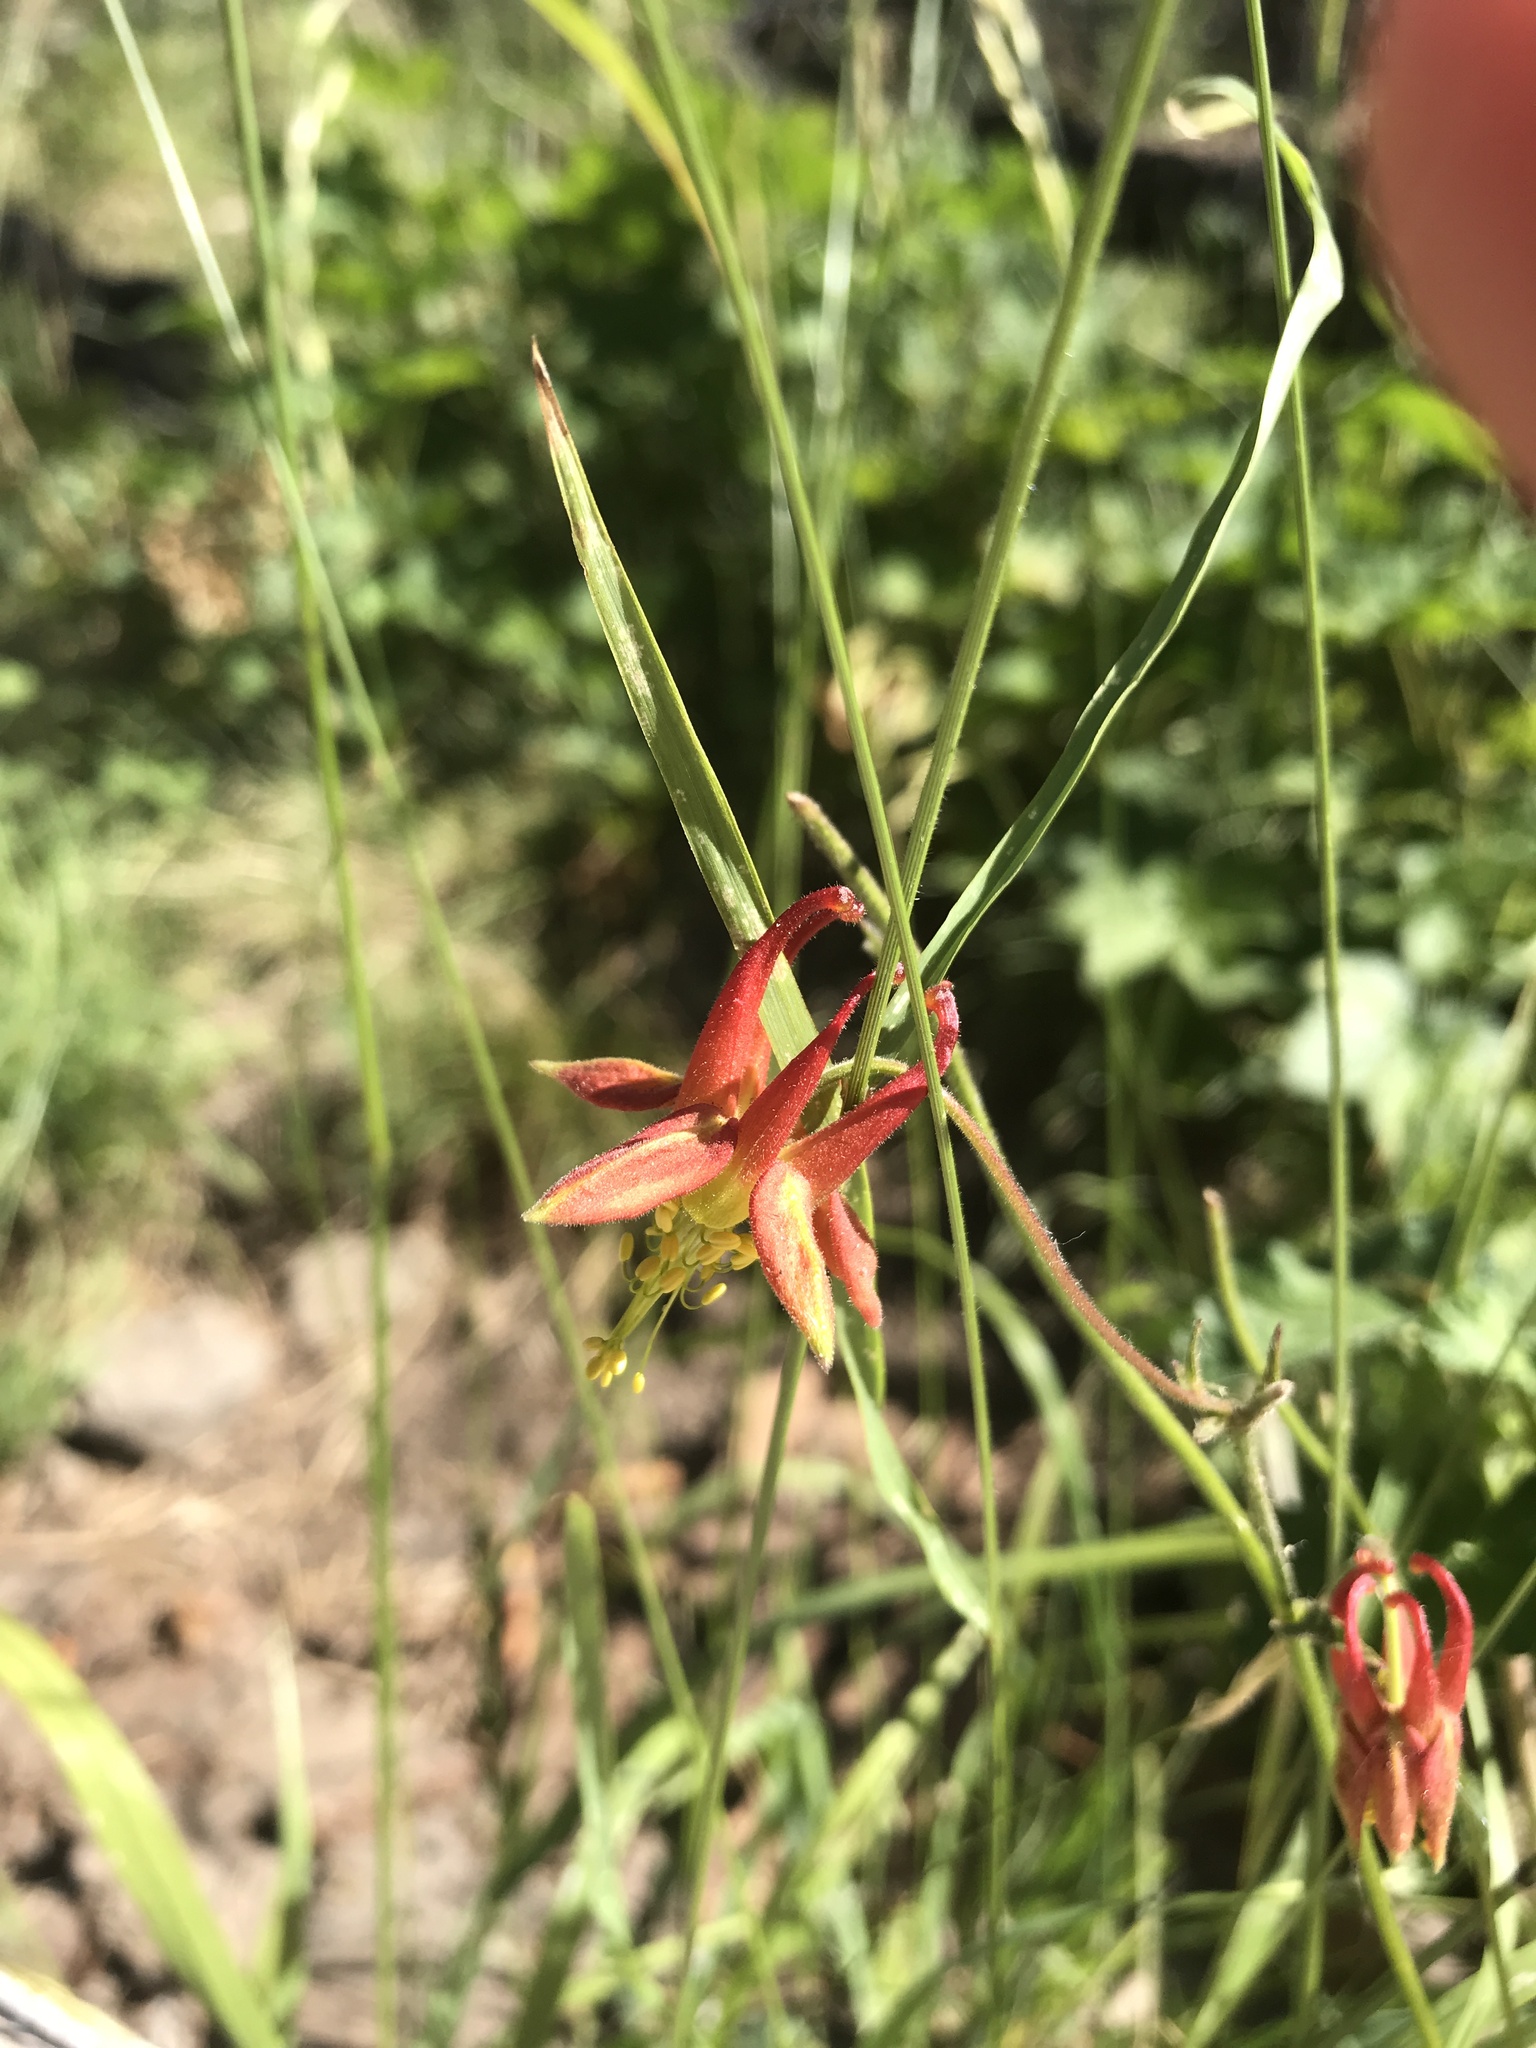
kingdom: Plantae
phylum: Tracheophyta
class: Magnoliopsida
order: Ranunculales
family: Ranunculaceae
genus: Aquilegia
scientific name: Aquilegia formosa
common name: Sitka columbine
